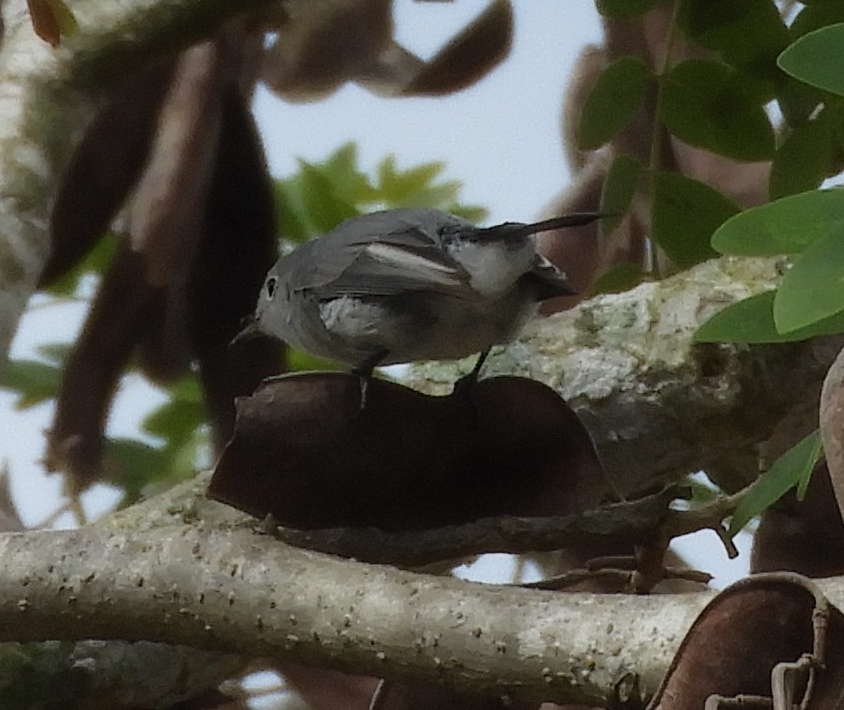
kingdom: Animalia
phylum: Chordata
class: Aves
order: Passeriformes
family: Polioptilidae
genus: Polioptila
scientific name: Polioptila caerulea
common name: Blue-gray gnatcatcher
